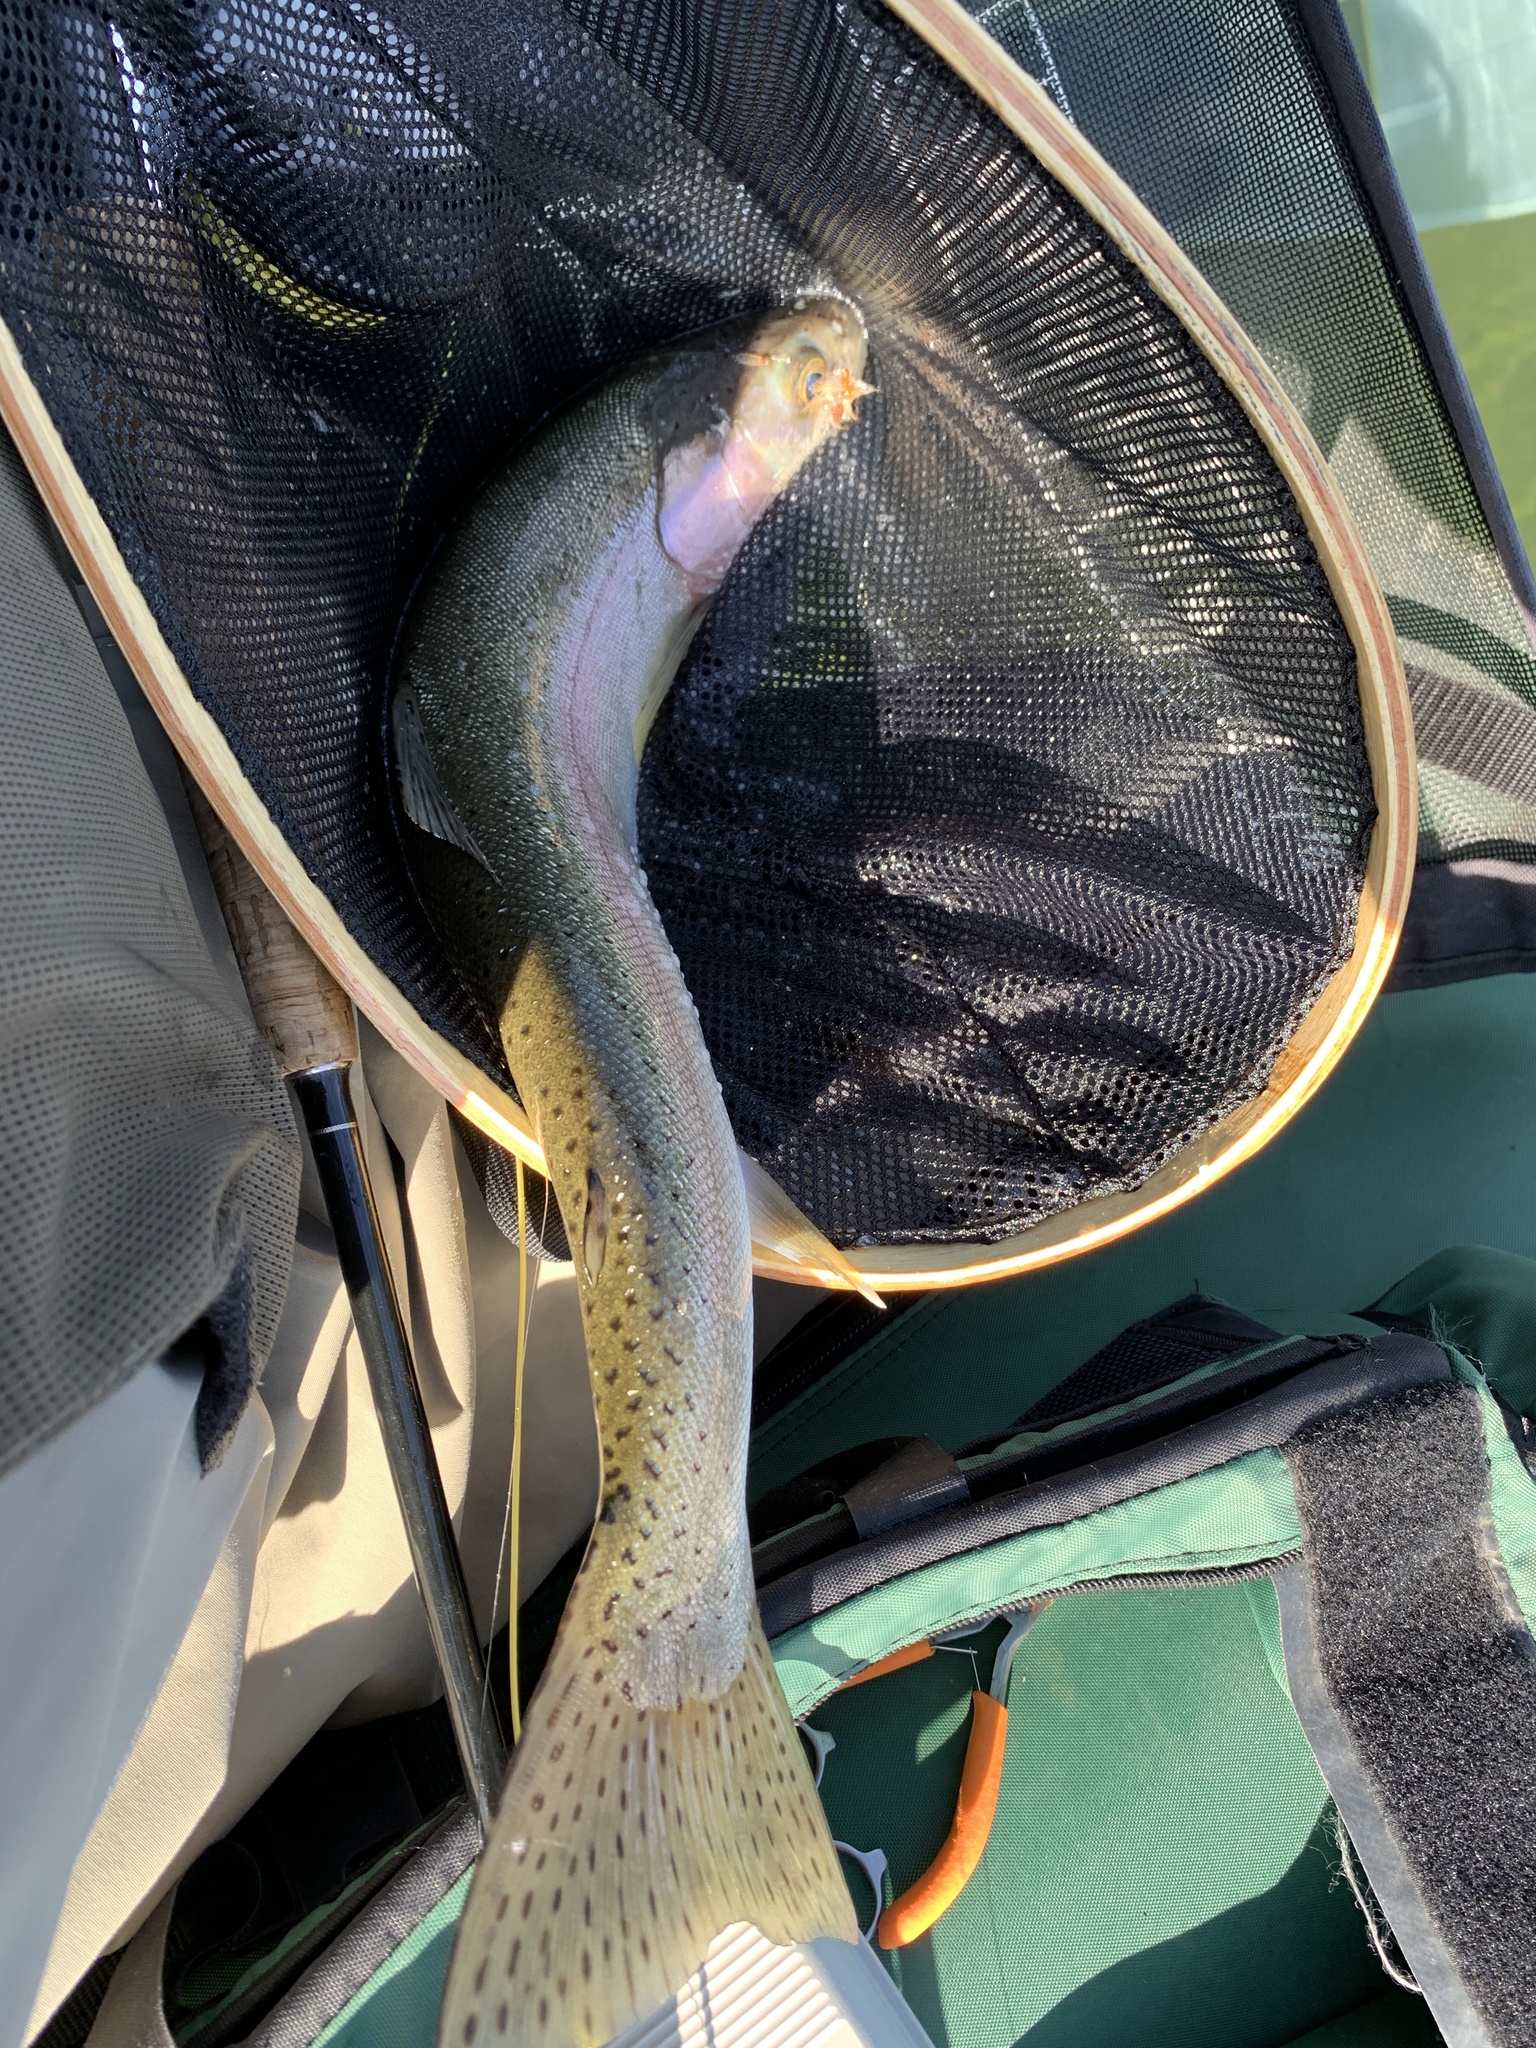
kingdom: Animalia
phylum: Chordata
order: Salmoniformes
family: Salmonidae
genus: Oncorhynchus
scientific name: Oncorhynchus mykiss
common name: Rainbow trout
